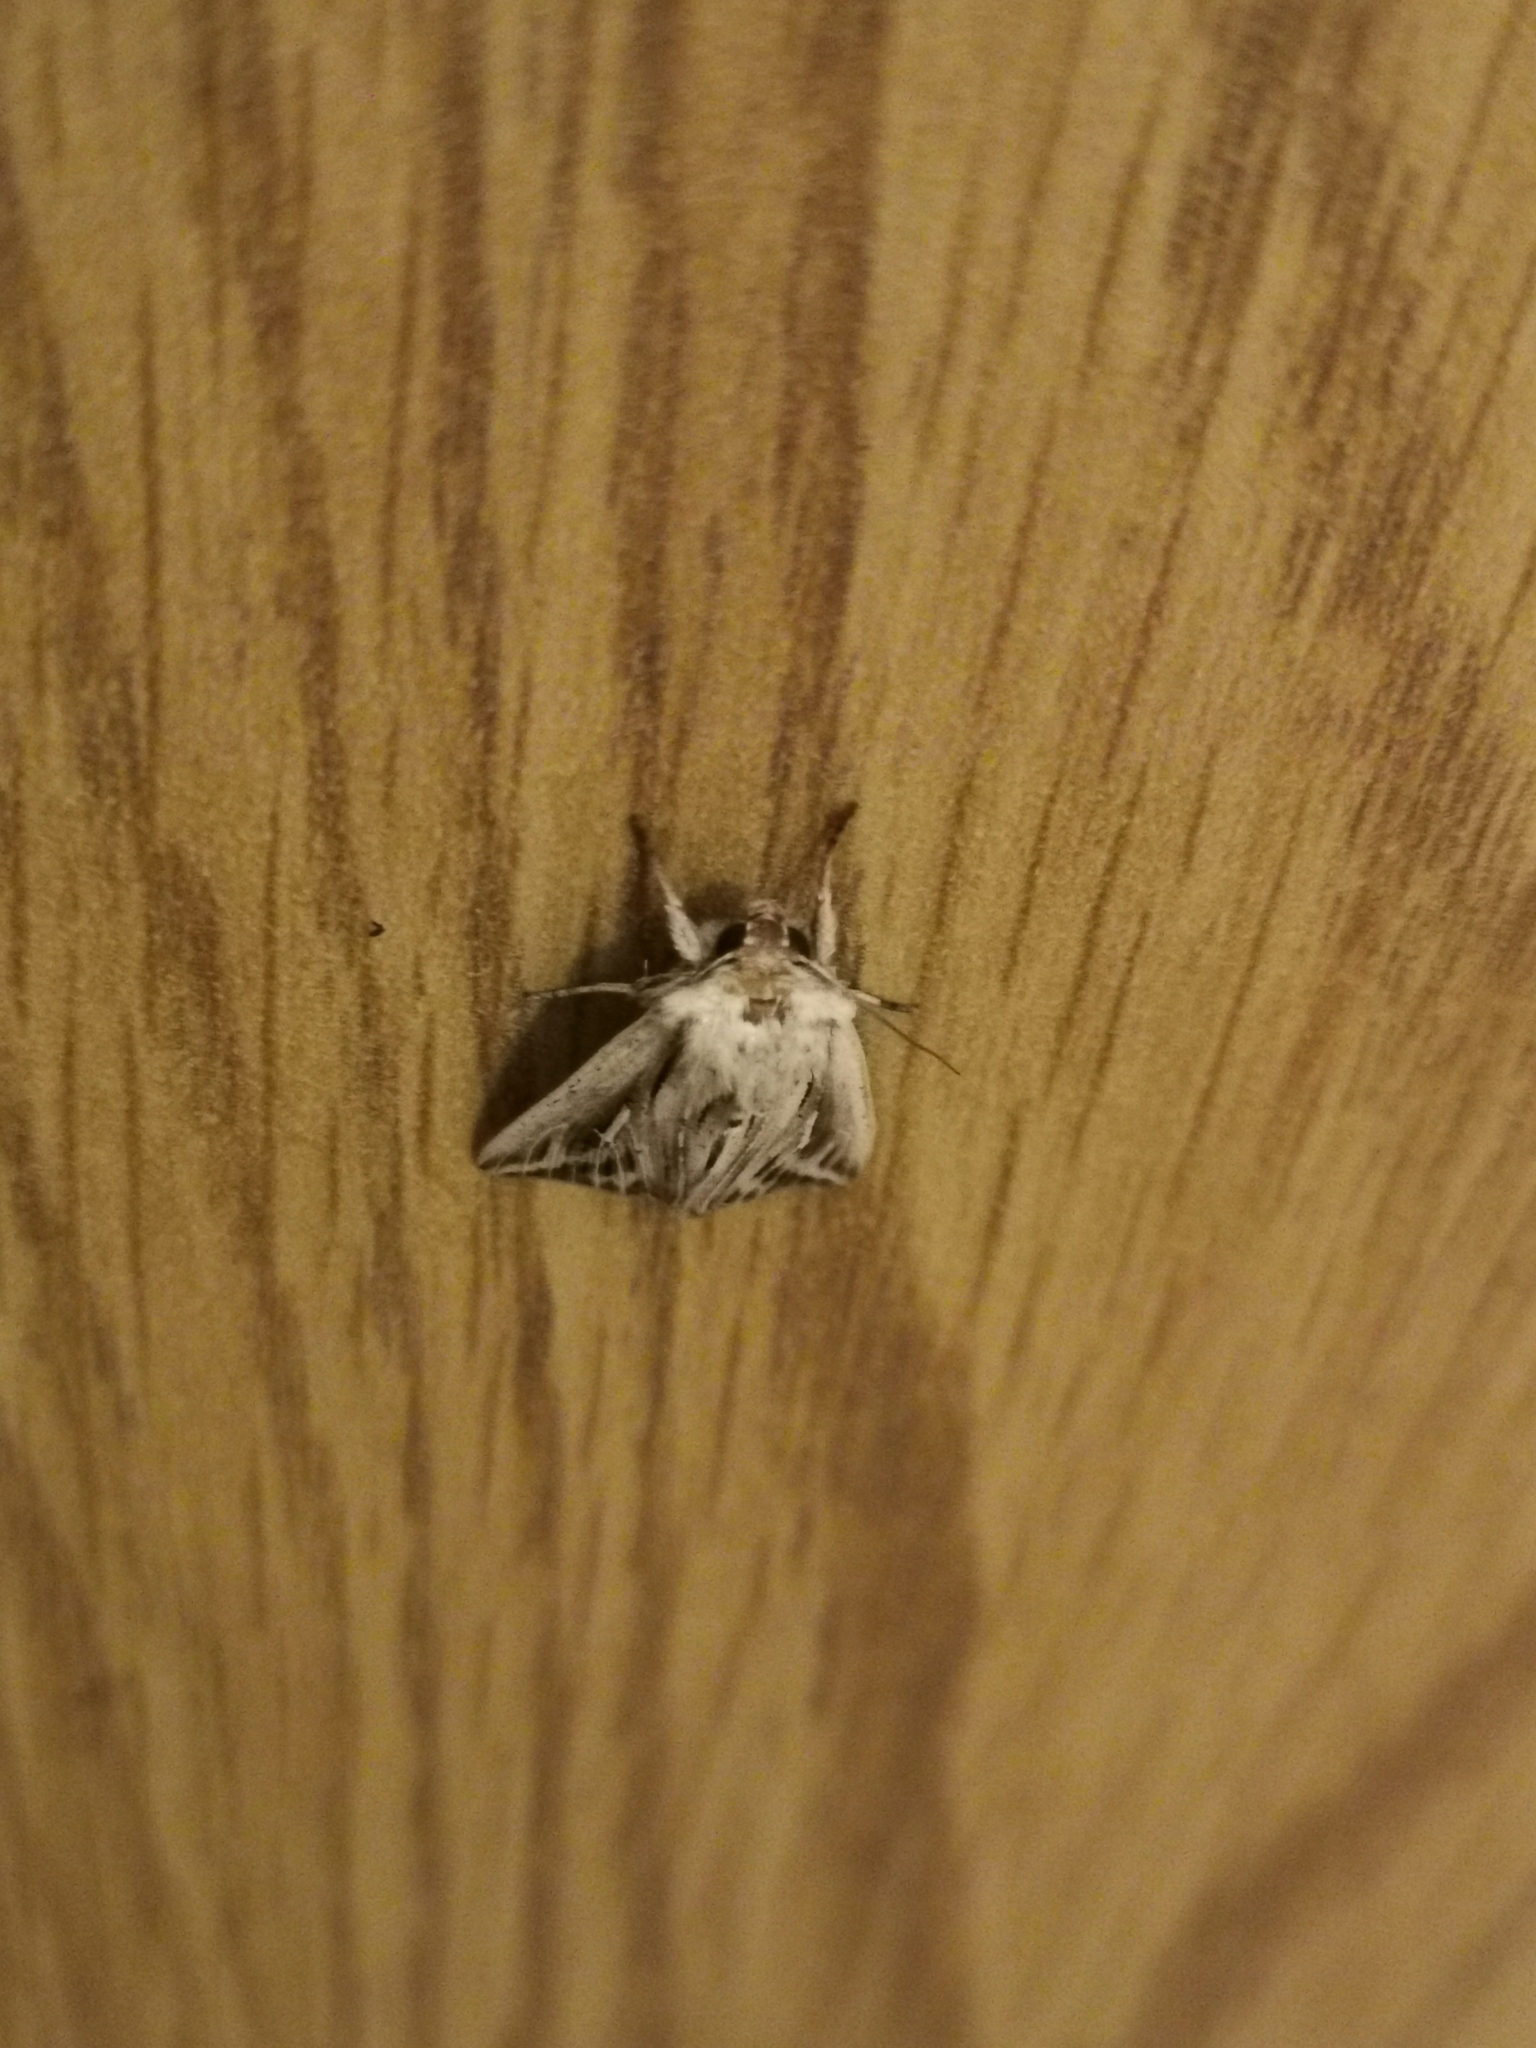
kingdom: Animalia
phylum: Arthropoda
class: Insecta
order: Lepidoptera
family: Noctuidae
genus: Mythimna
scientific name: Mythimna l-album
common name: L-album wainscot
